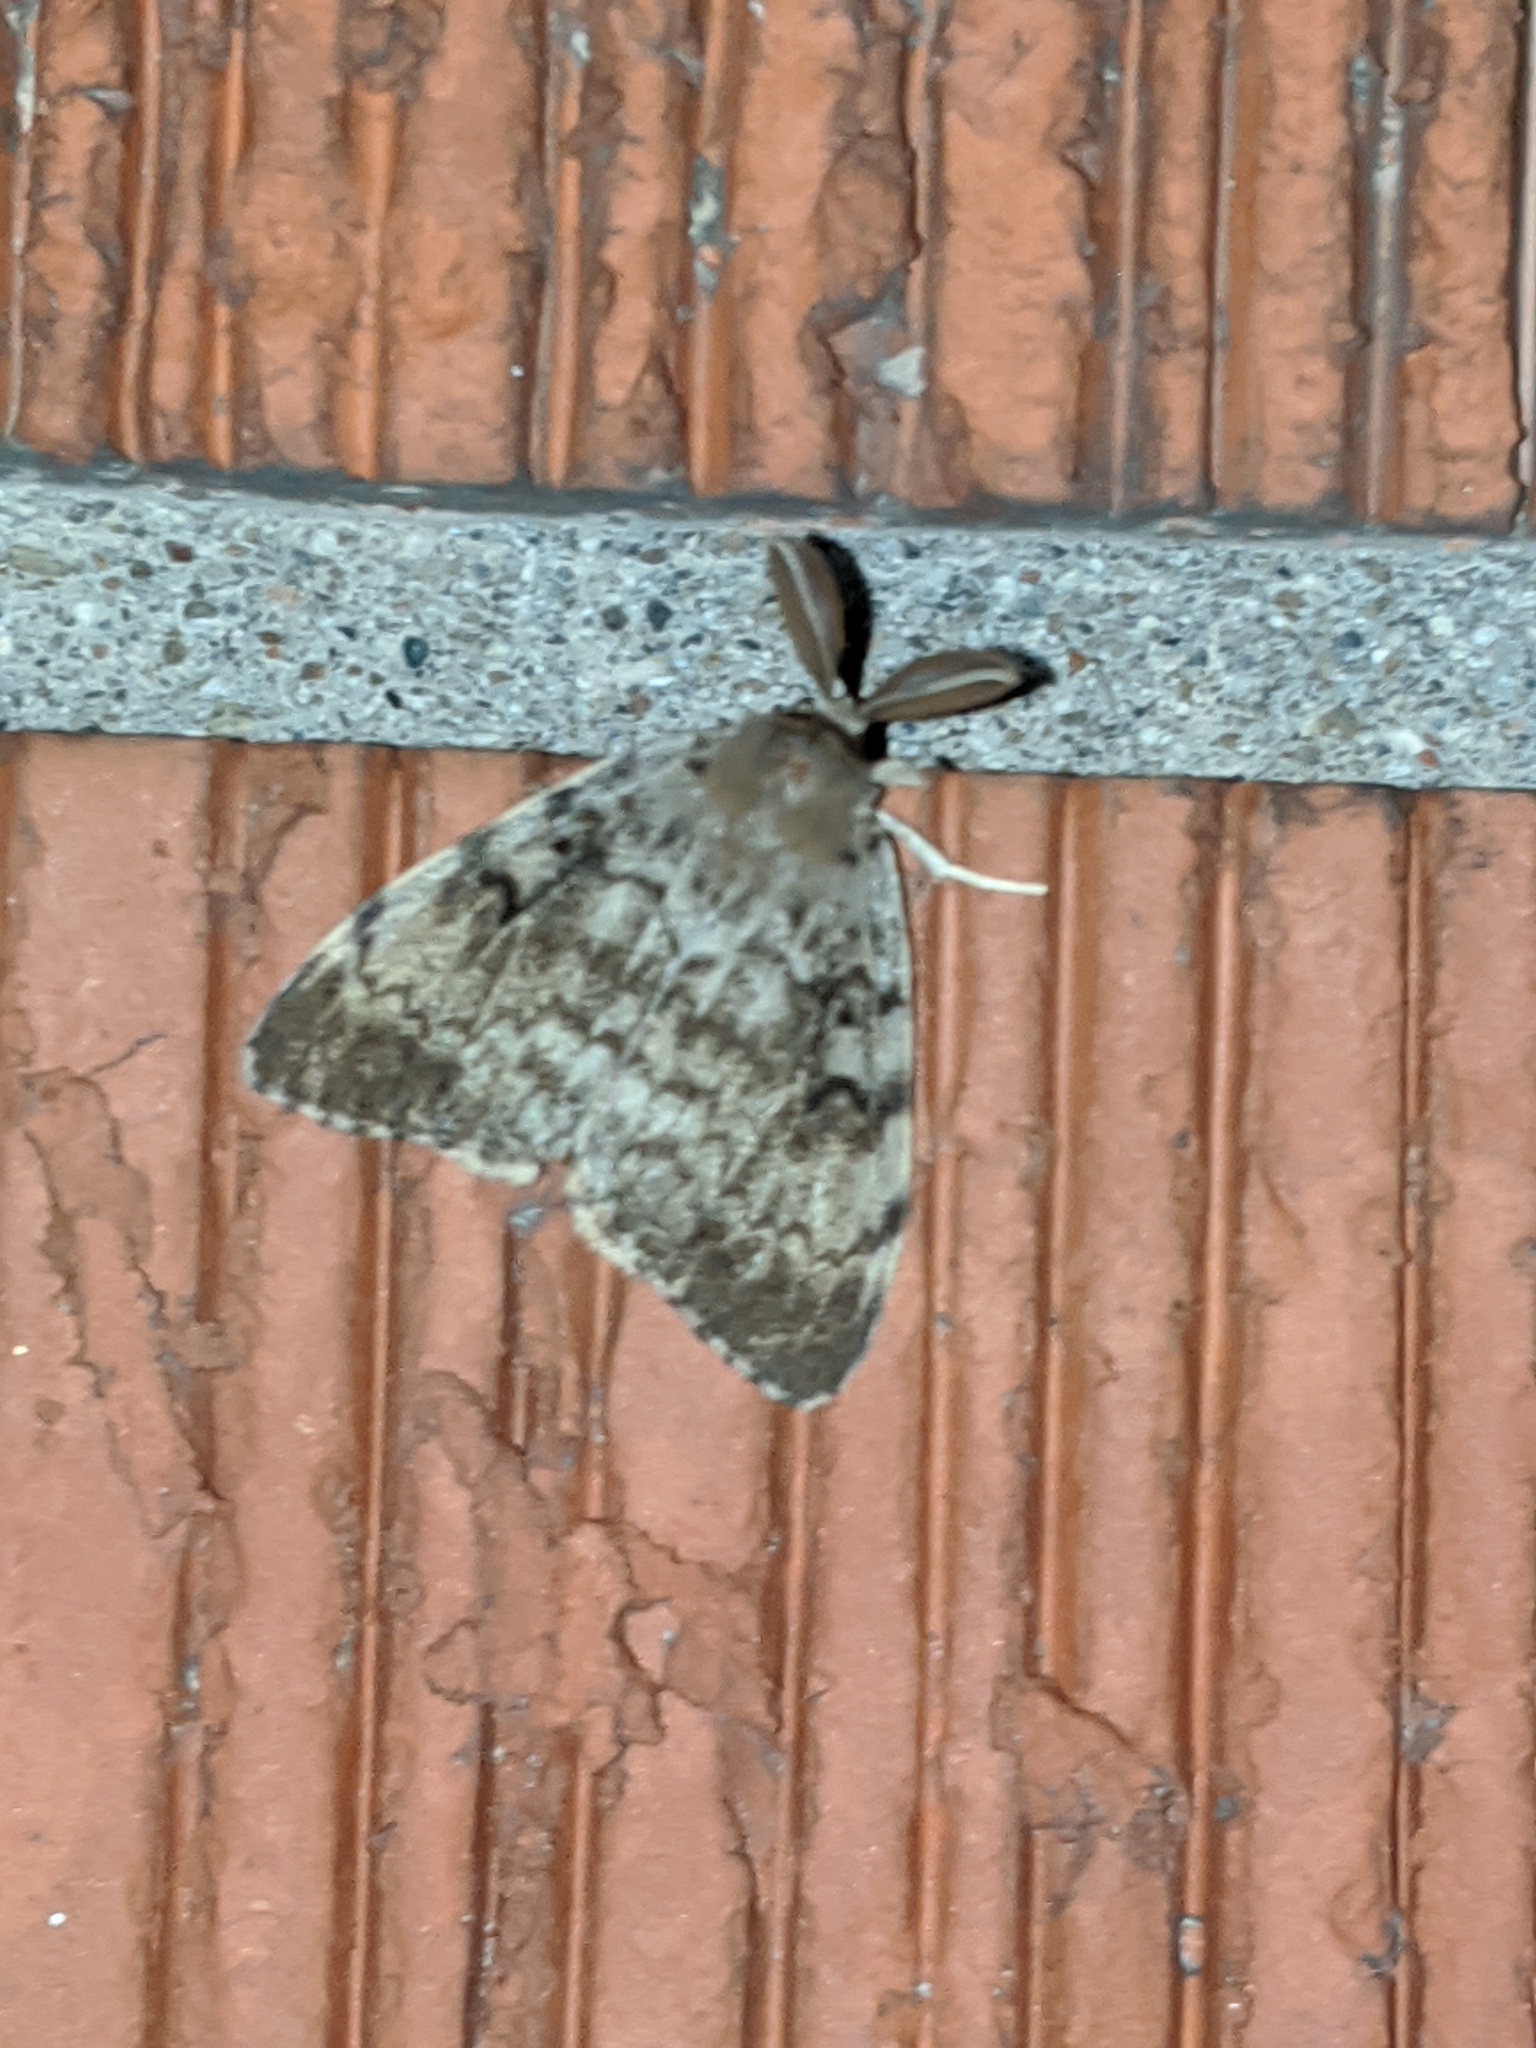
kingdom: Animalia
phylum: Arthropoda
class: Insecta
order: Lepidoptera
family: Erebidae
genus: Lymantria
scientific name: Lymantria dispar
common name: Gypsy moth
